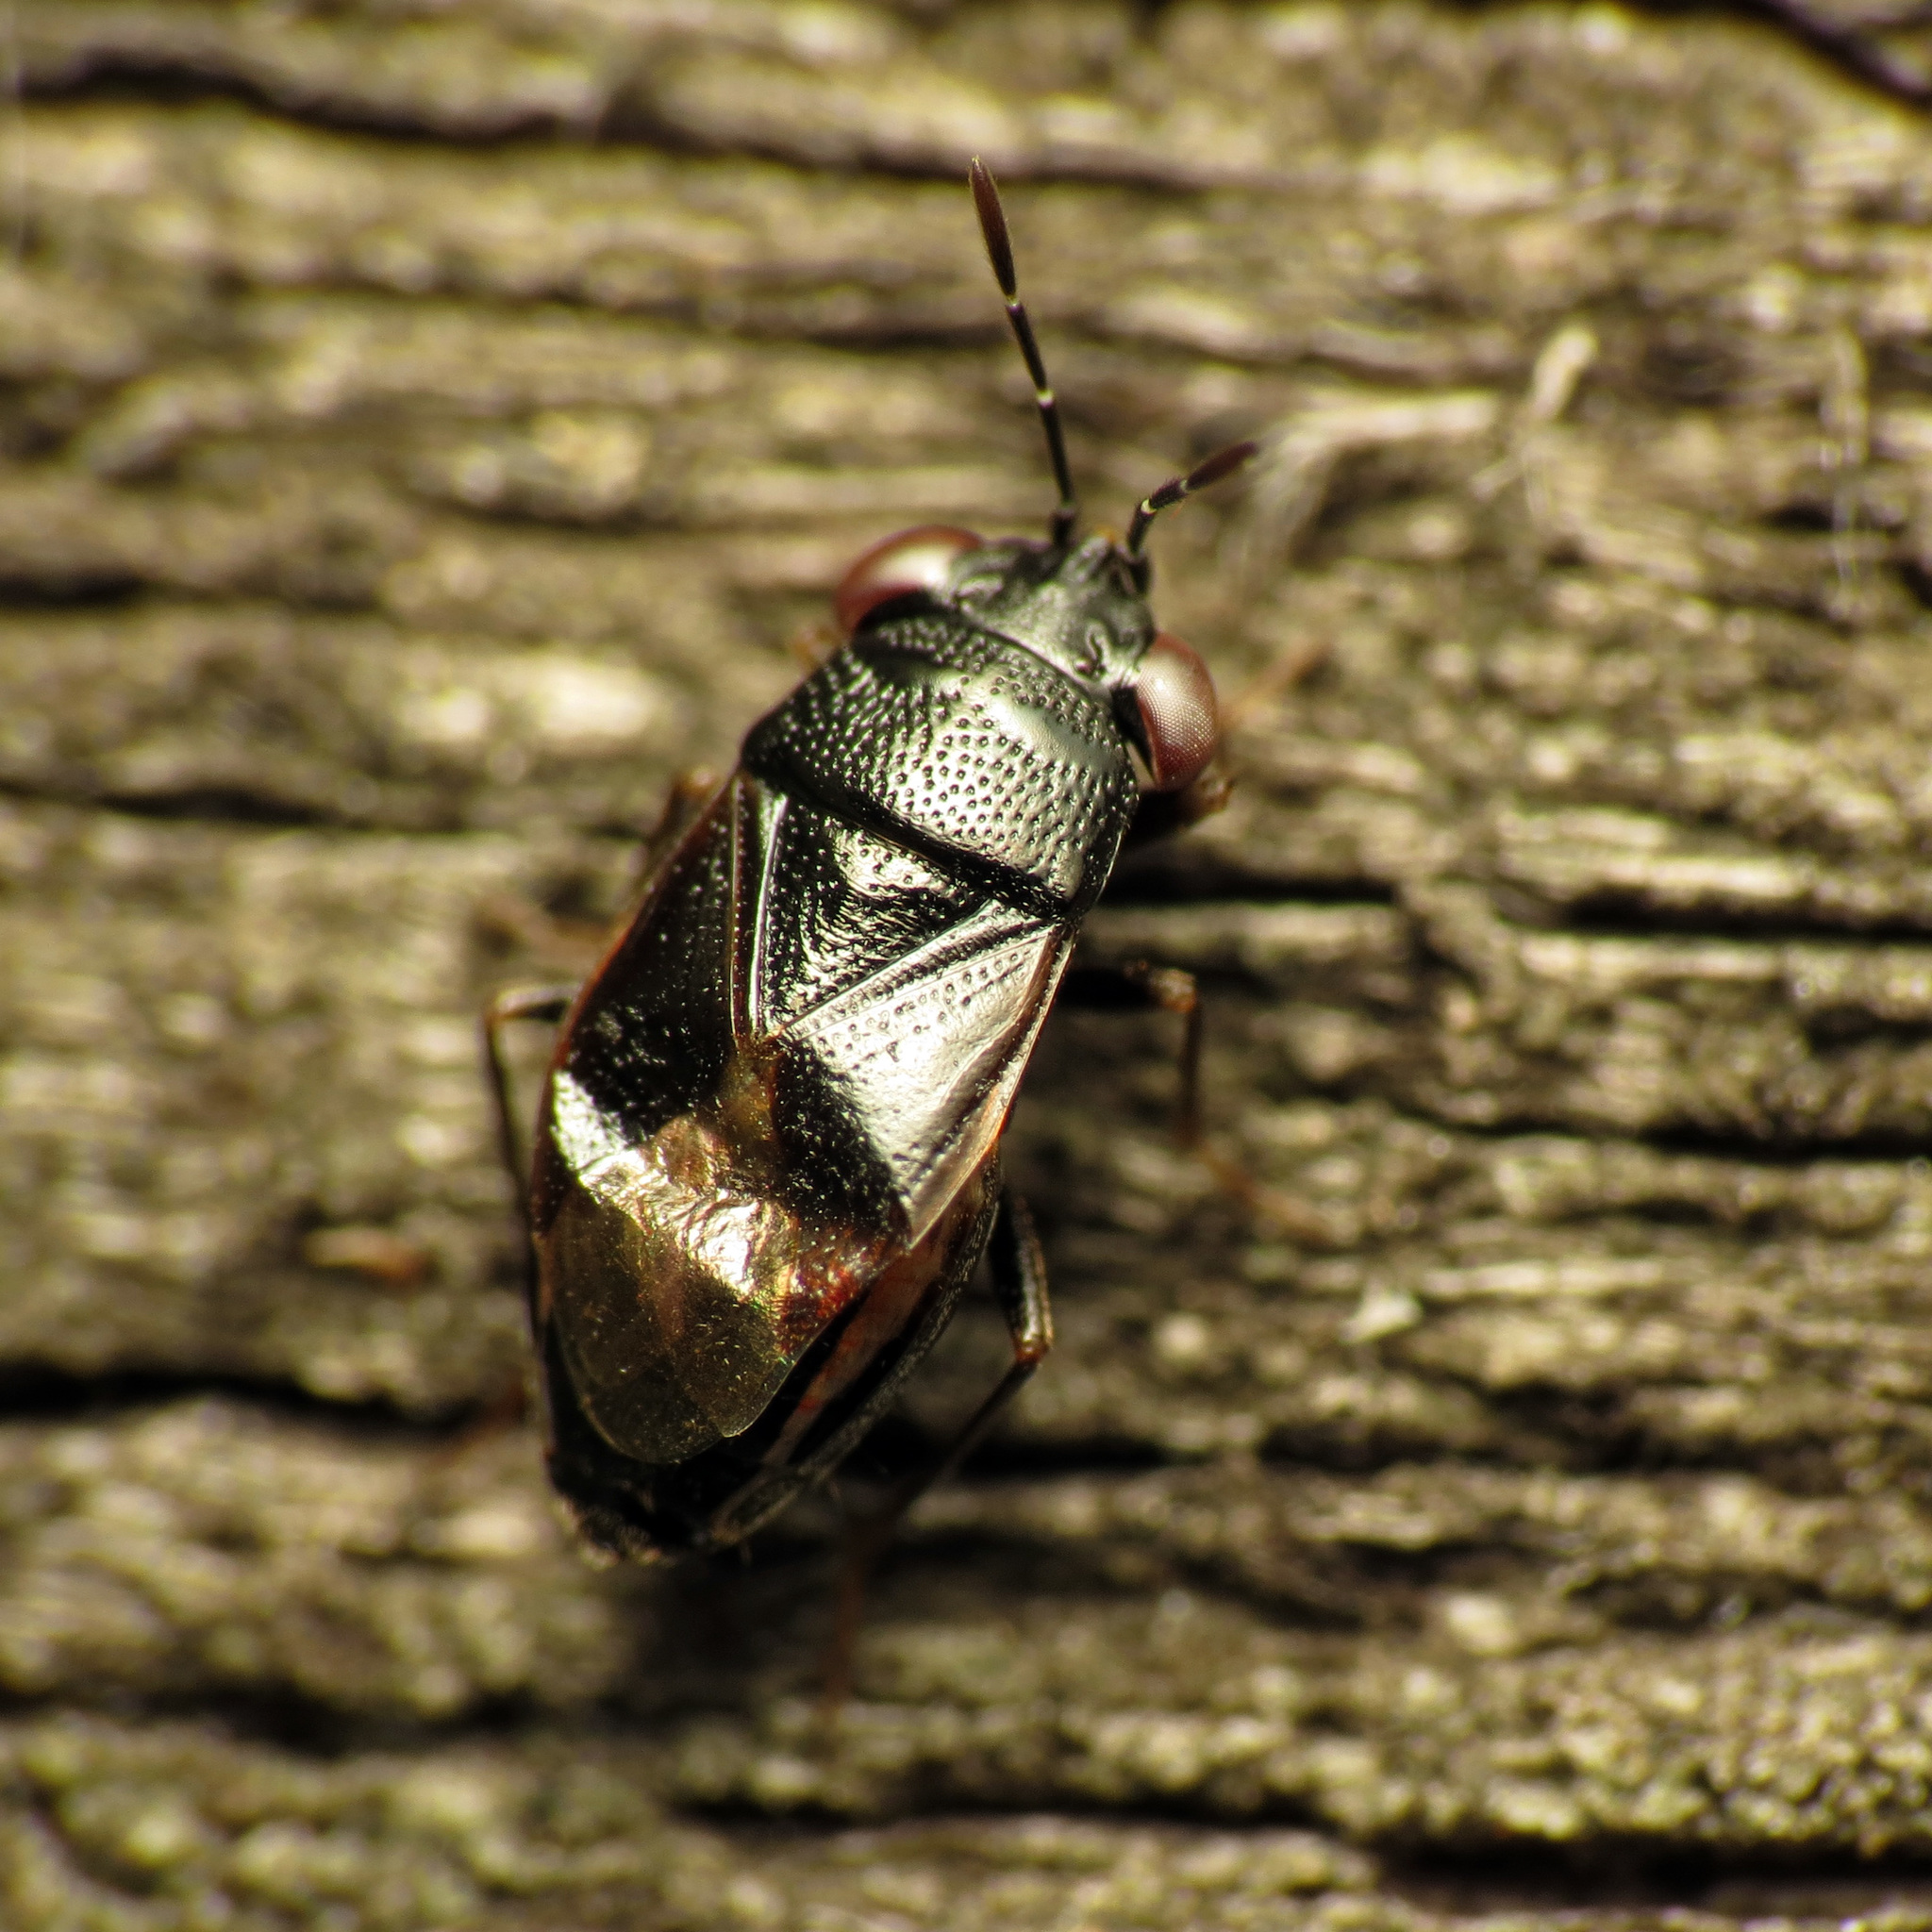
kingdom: Animalia
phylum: Arthropoda
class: Insecta
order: Hemiptera
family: Geocoridae
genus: Geocoris
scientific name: Geocoris uliginosus
